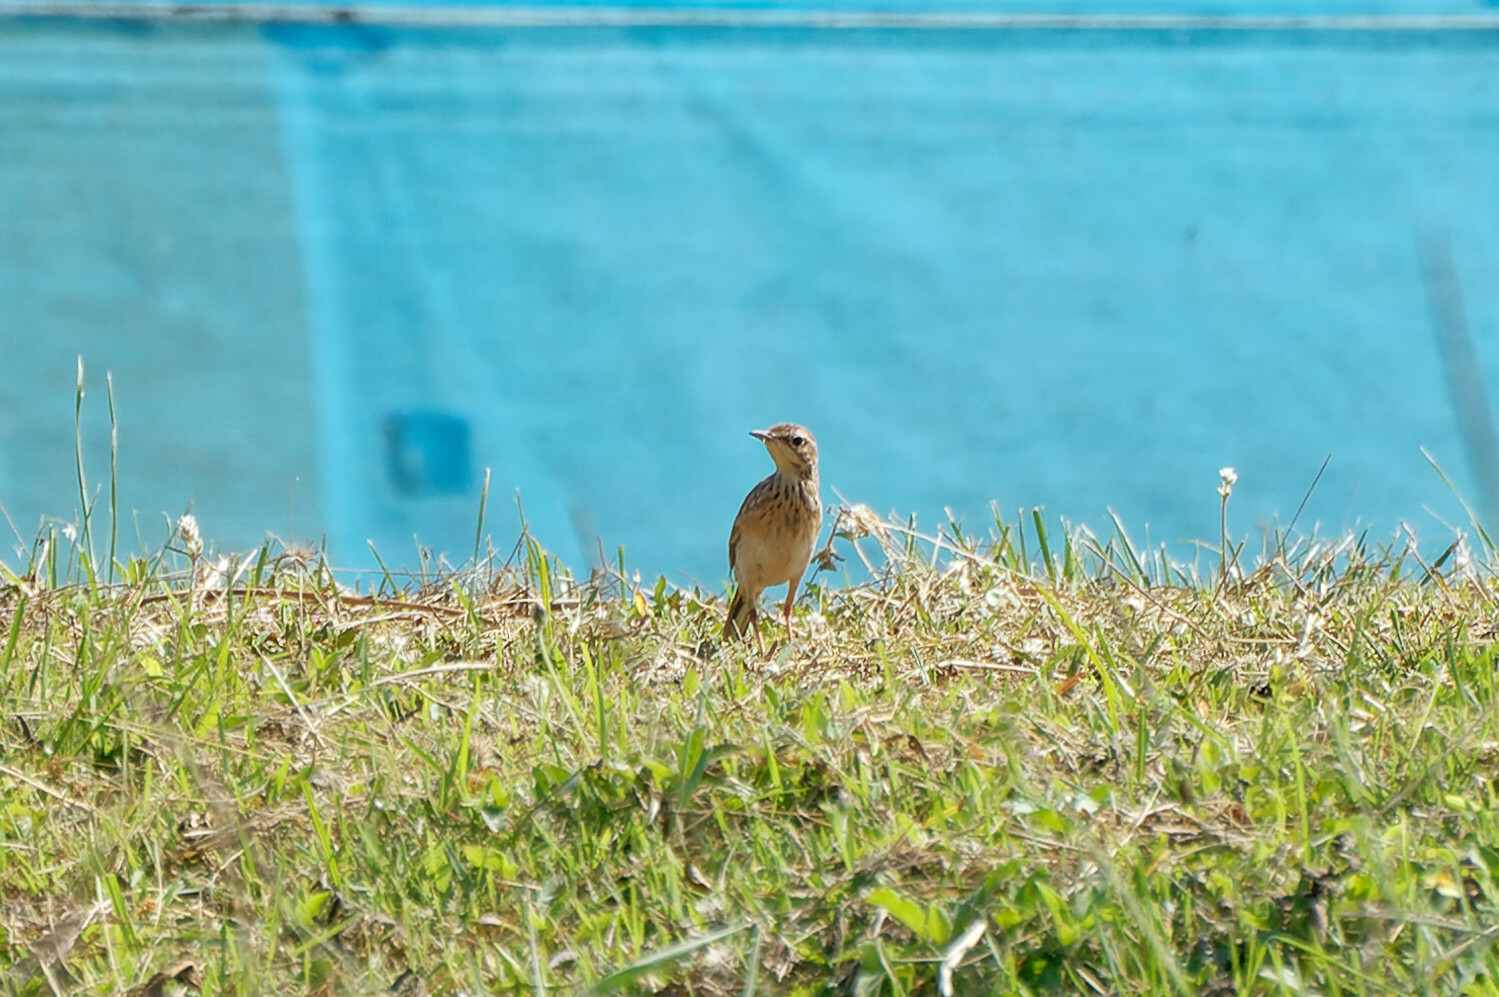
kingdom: Animalia
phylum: Chordata
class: Aves
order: Passeriformes
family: Motacillidae
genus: Anthus
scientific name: Anthus rufulus
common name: Paddyfield pipit
